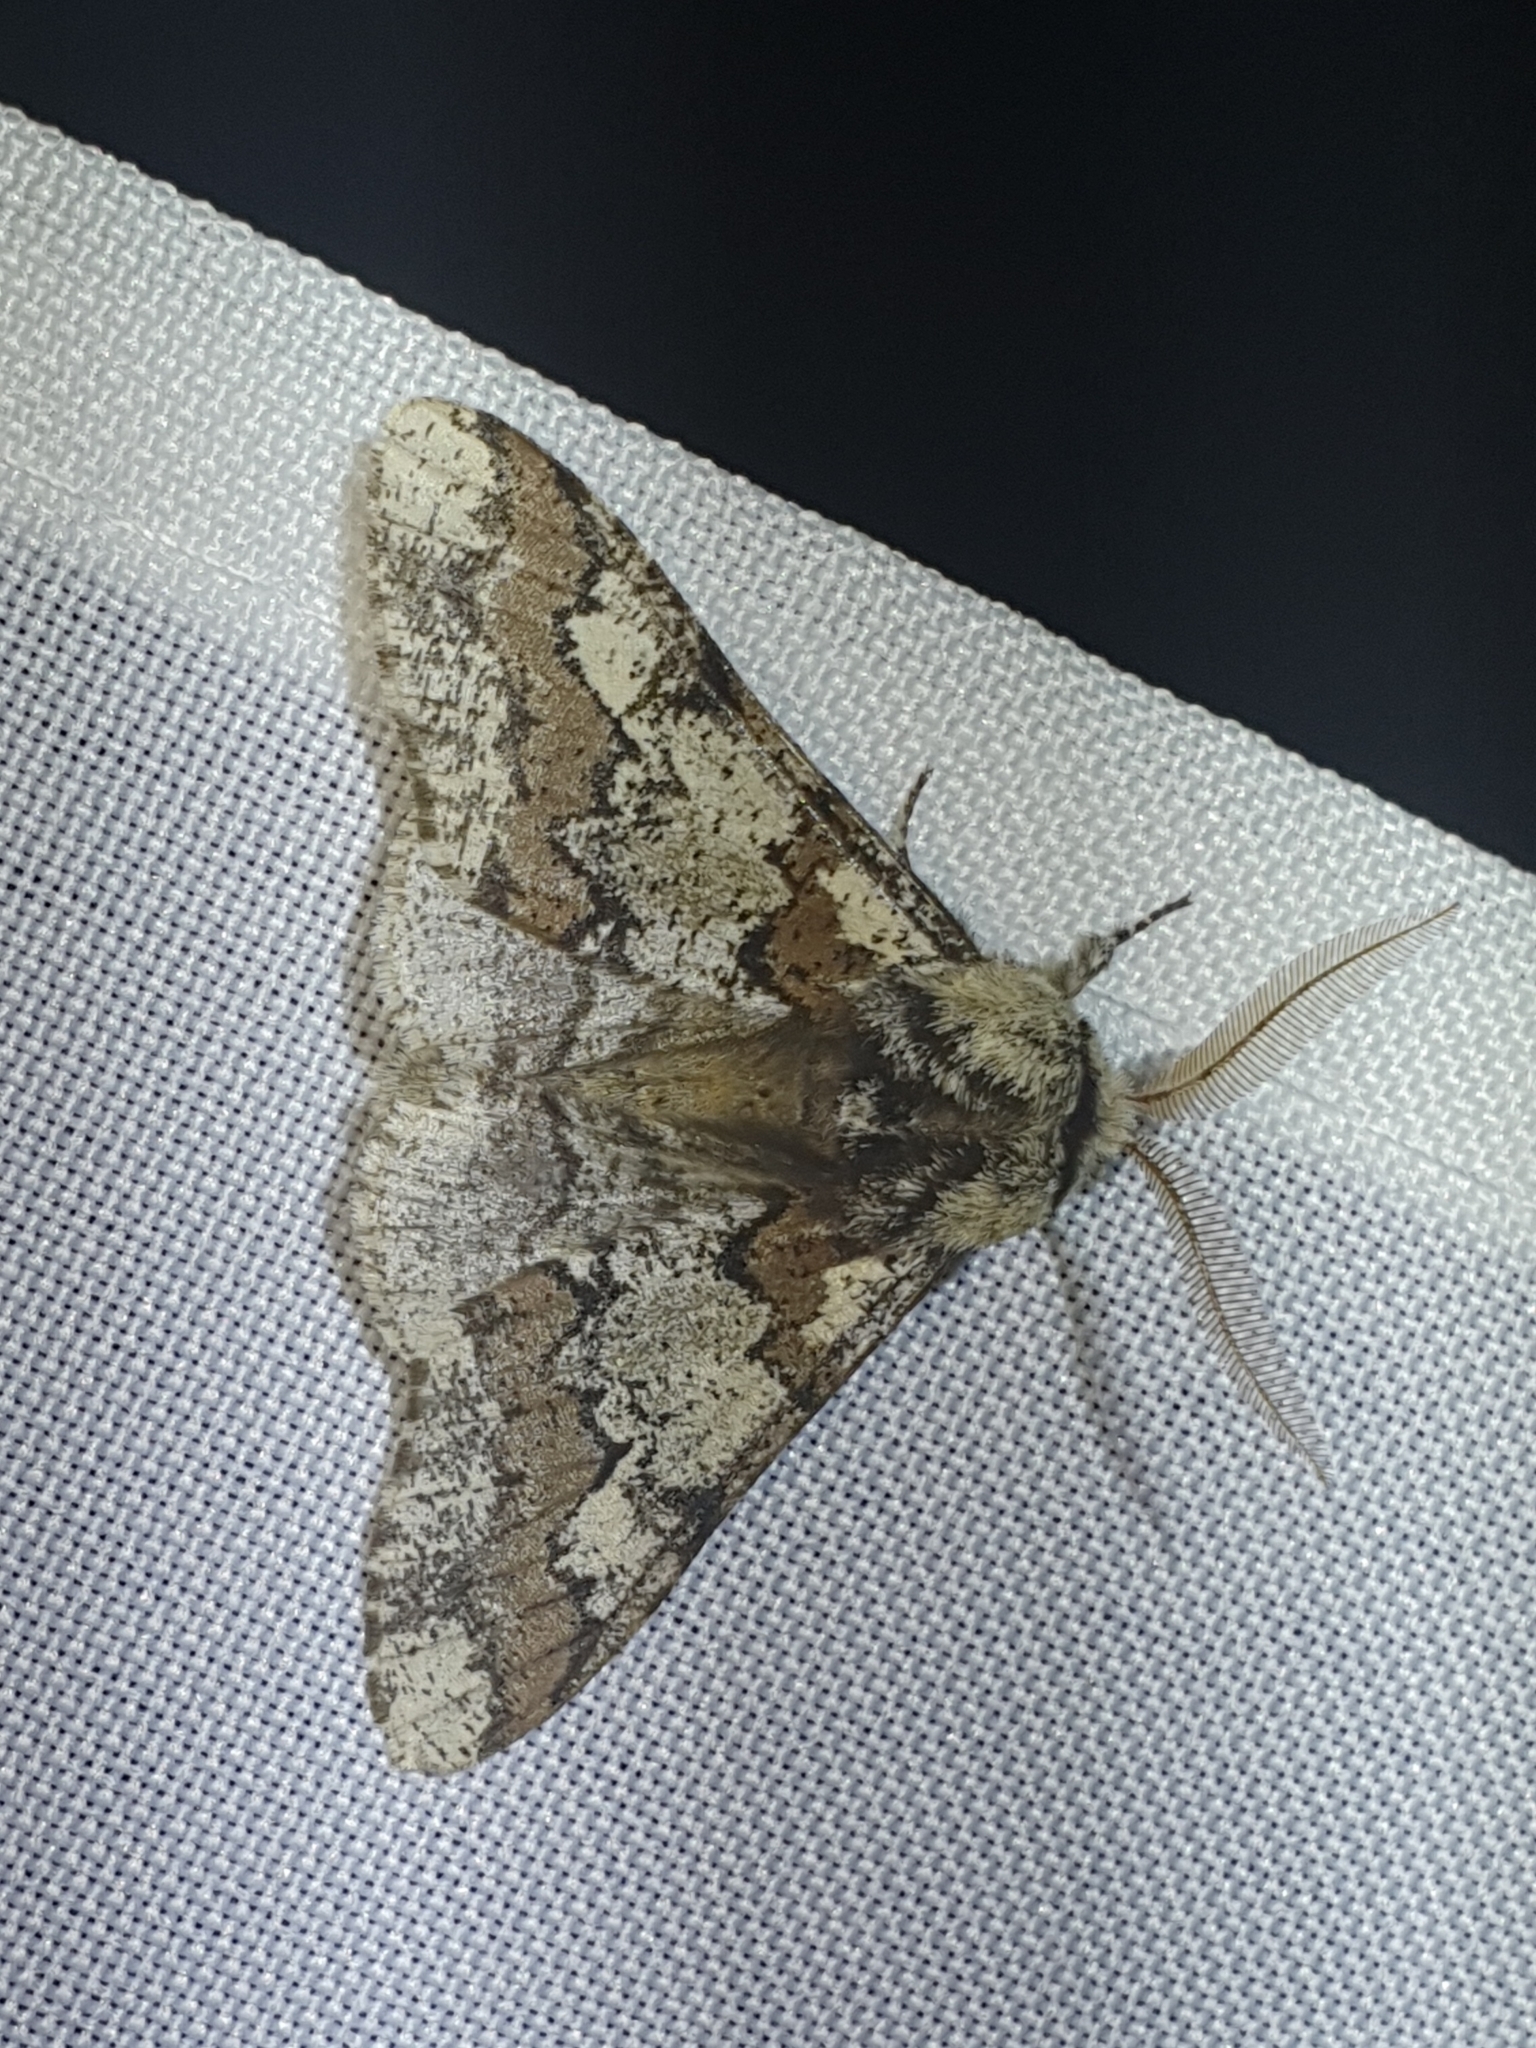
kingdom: Animalia
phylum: Arthropoda
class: Insecta
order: Lepidoptera
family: Geometridae
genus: Biston
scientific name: Biston strataria
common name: Oak beauty
